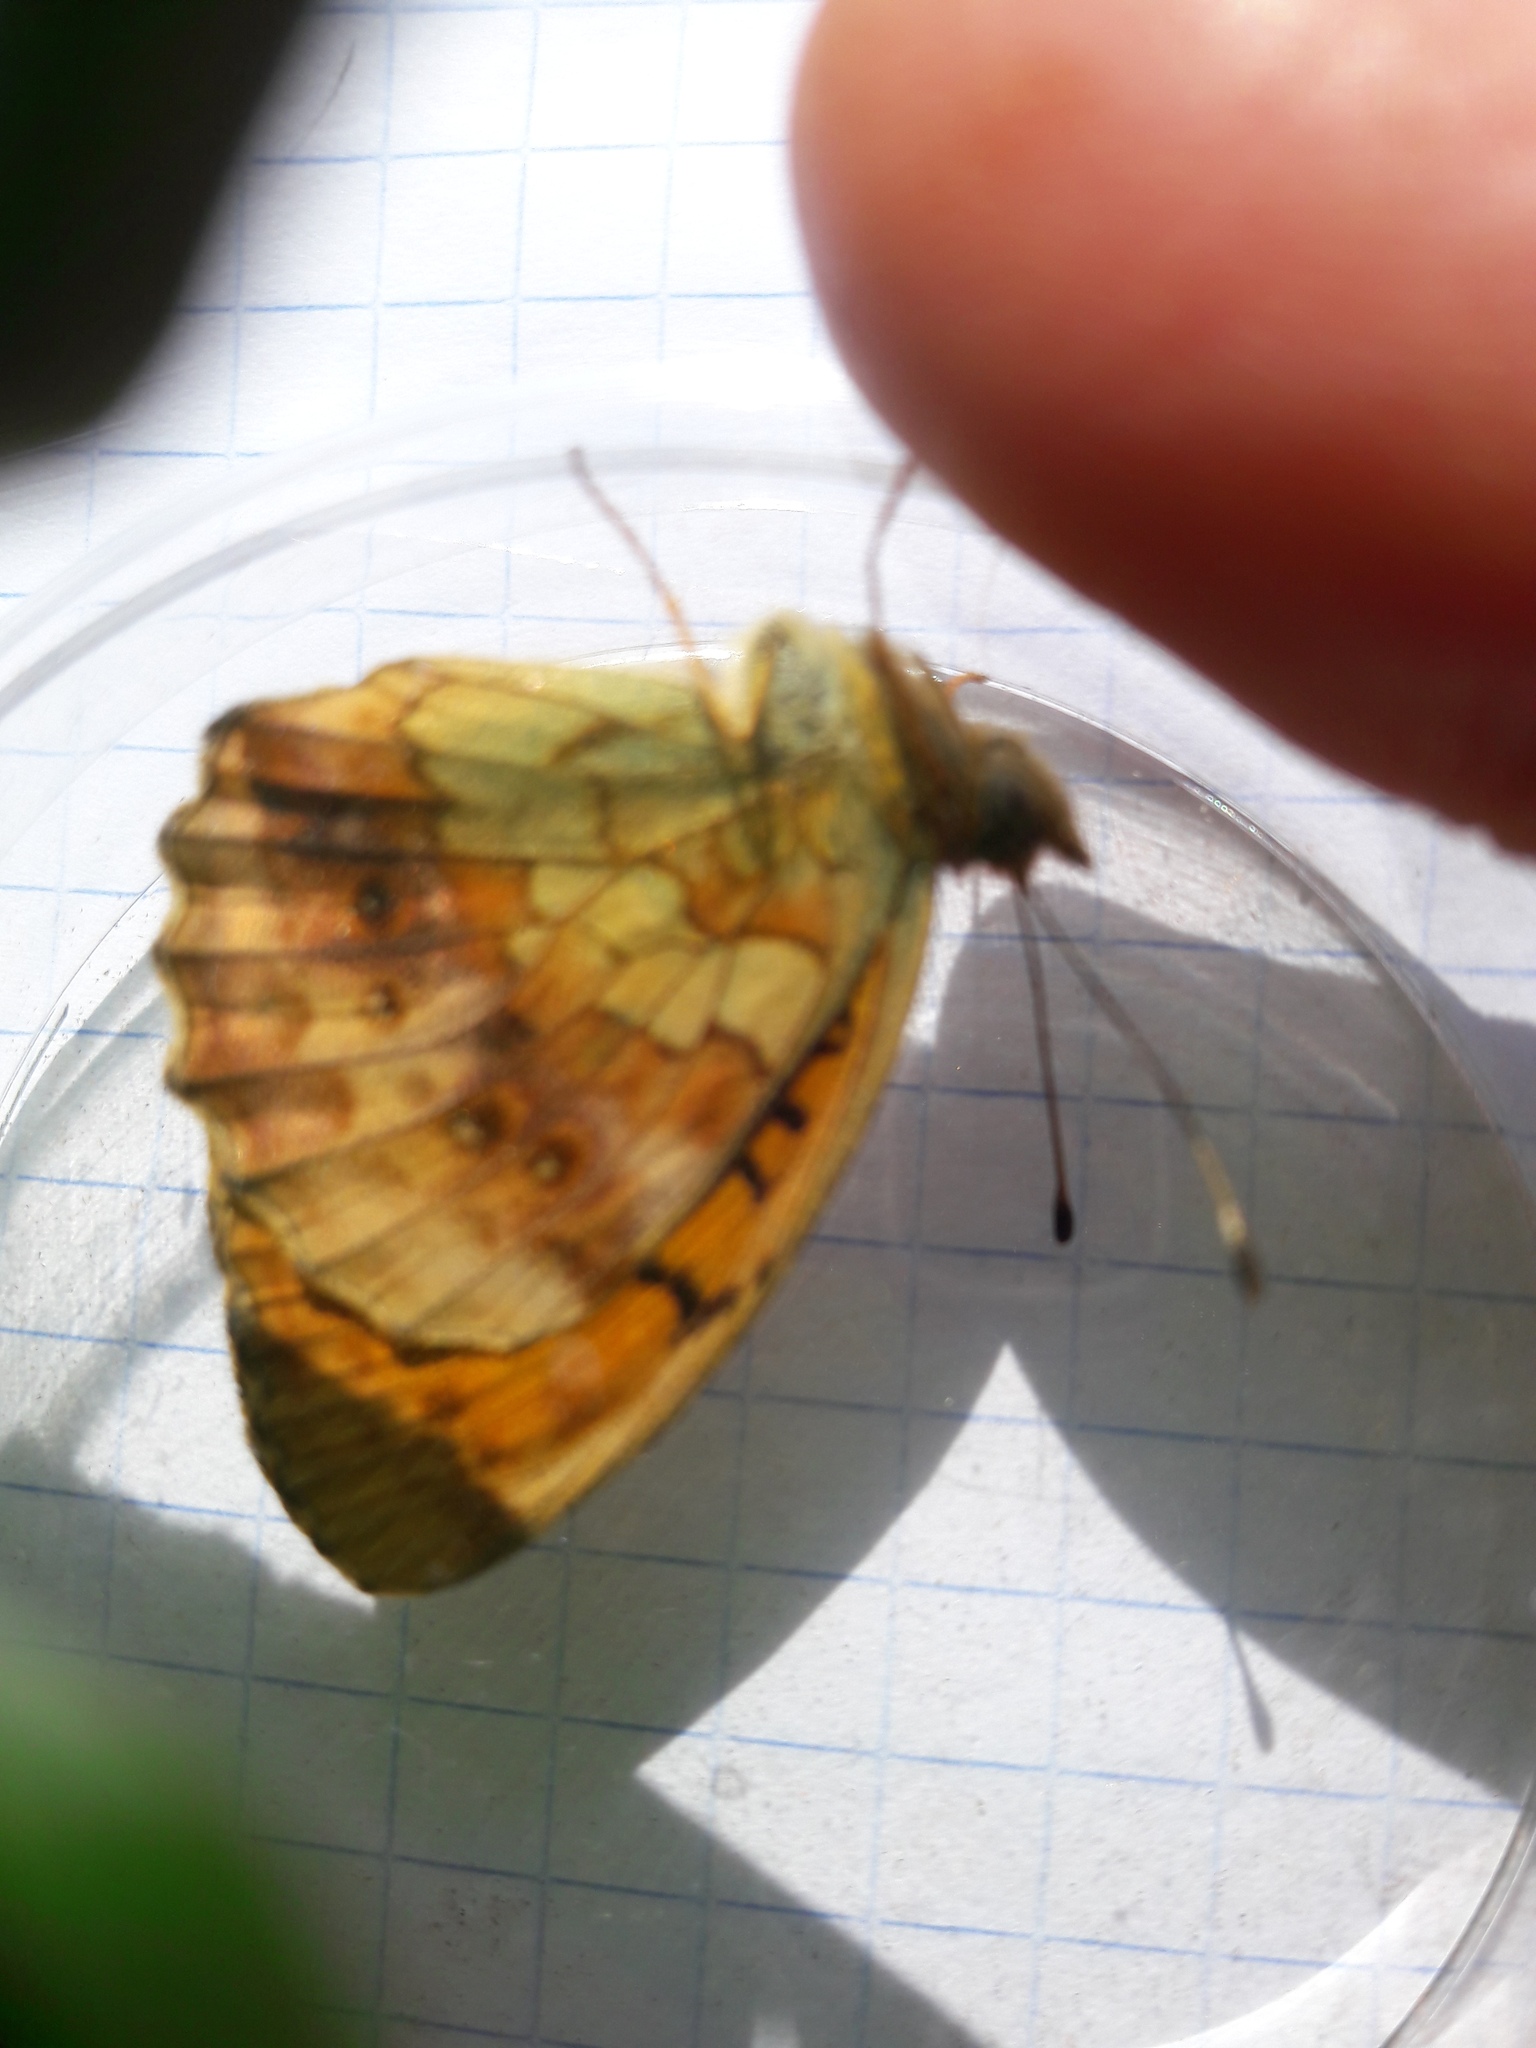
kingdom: Animalia
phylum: Arthropoda
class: Insecta
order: Lepidoptera
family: Nymphalidae
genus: Brenthis
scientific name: Brenthis daphne
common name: Marbled fritillary
